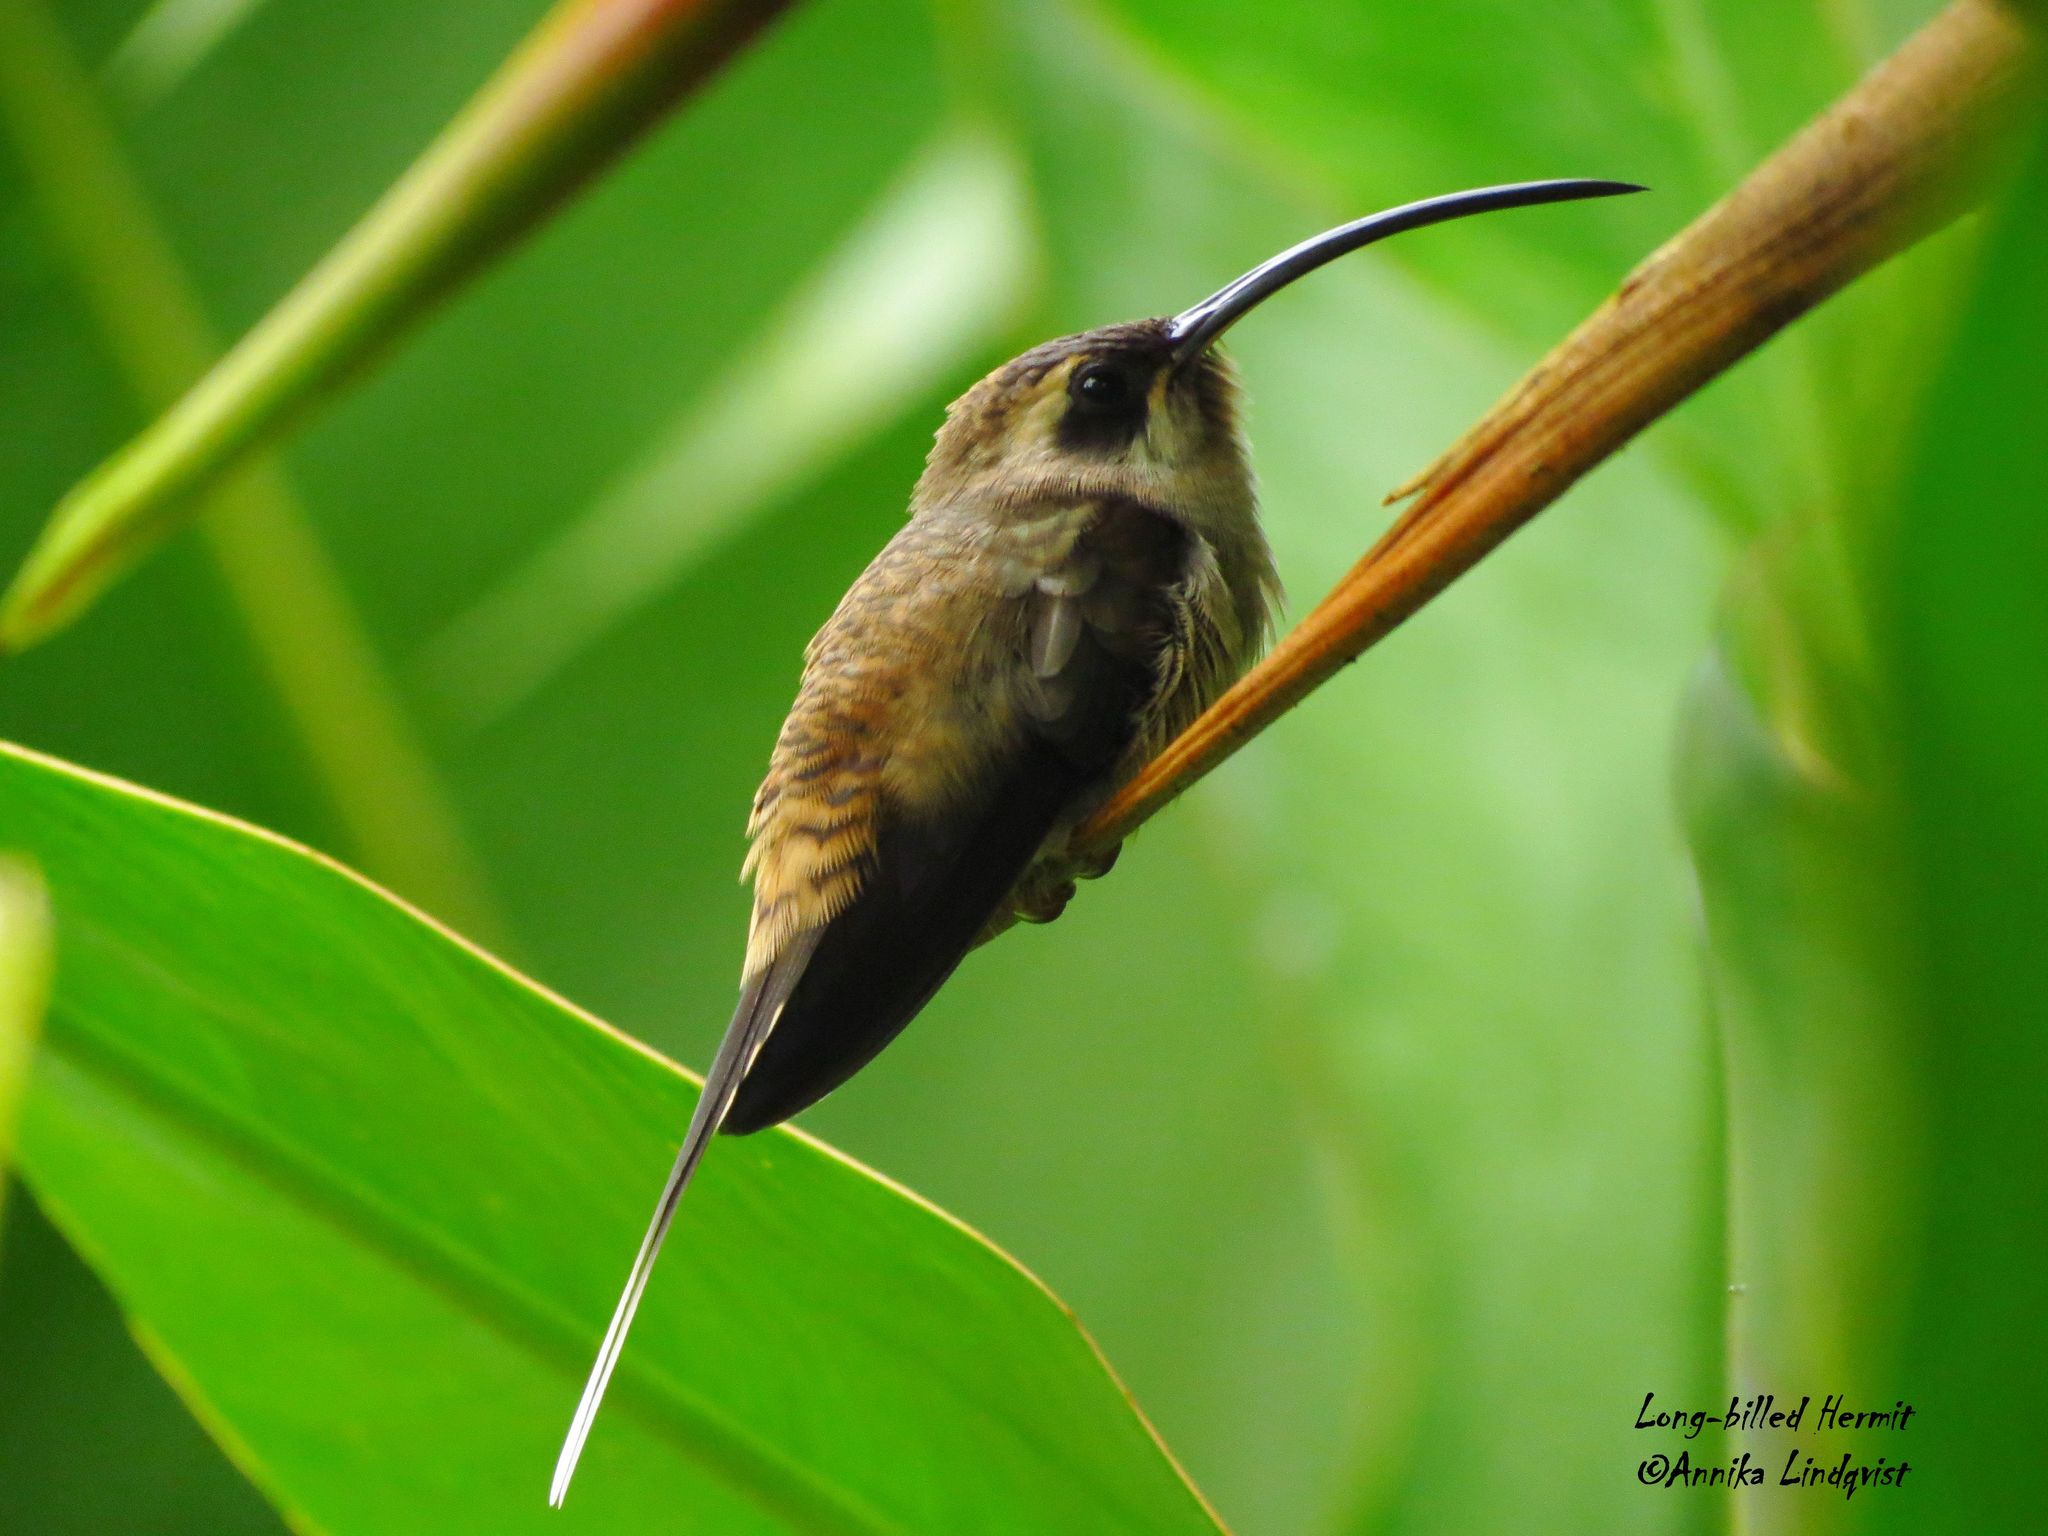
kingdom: Animalia
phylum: Chordata
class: Aves
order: Apodiformes
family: Trochilidae
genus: Phaethornis
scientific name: Phaethornis longirostris
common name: Long-billed hermit
